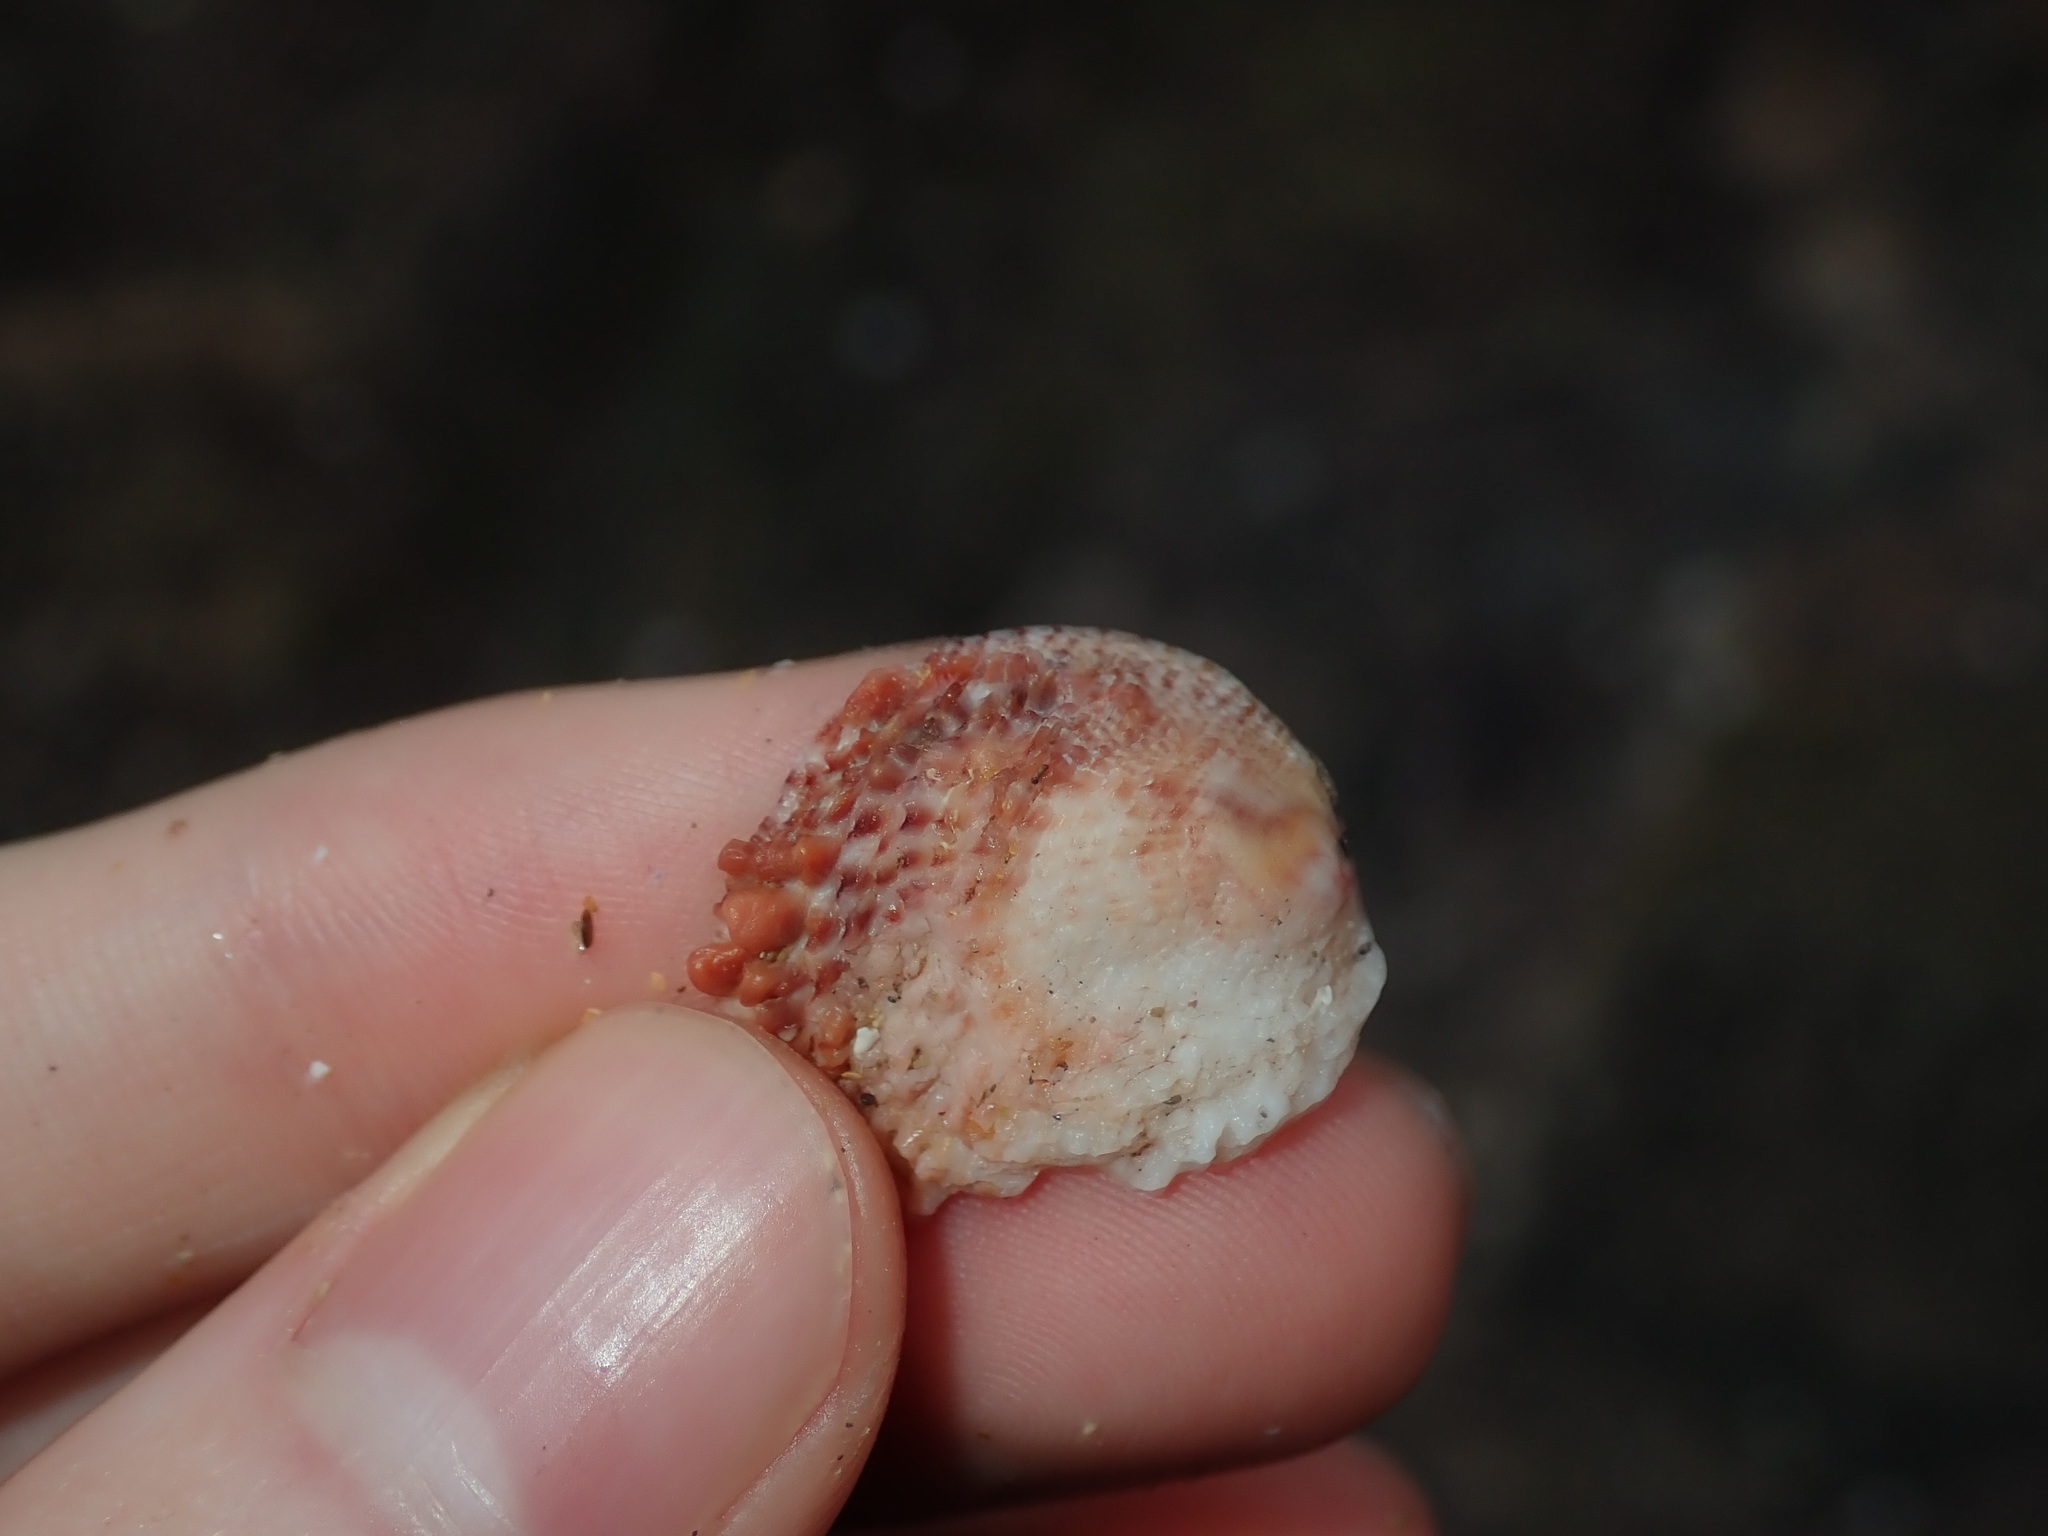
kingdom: Animalia
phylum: Mollusca
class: Bivalvia
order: Venerida
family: Chamidae
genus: Chama
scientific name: Chama asperella
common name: Mollusca
